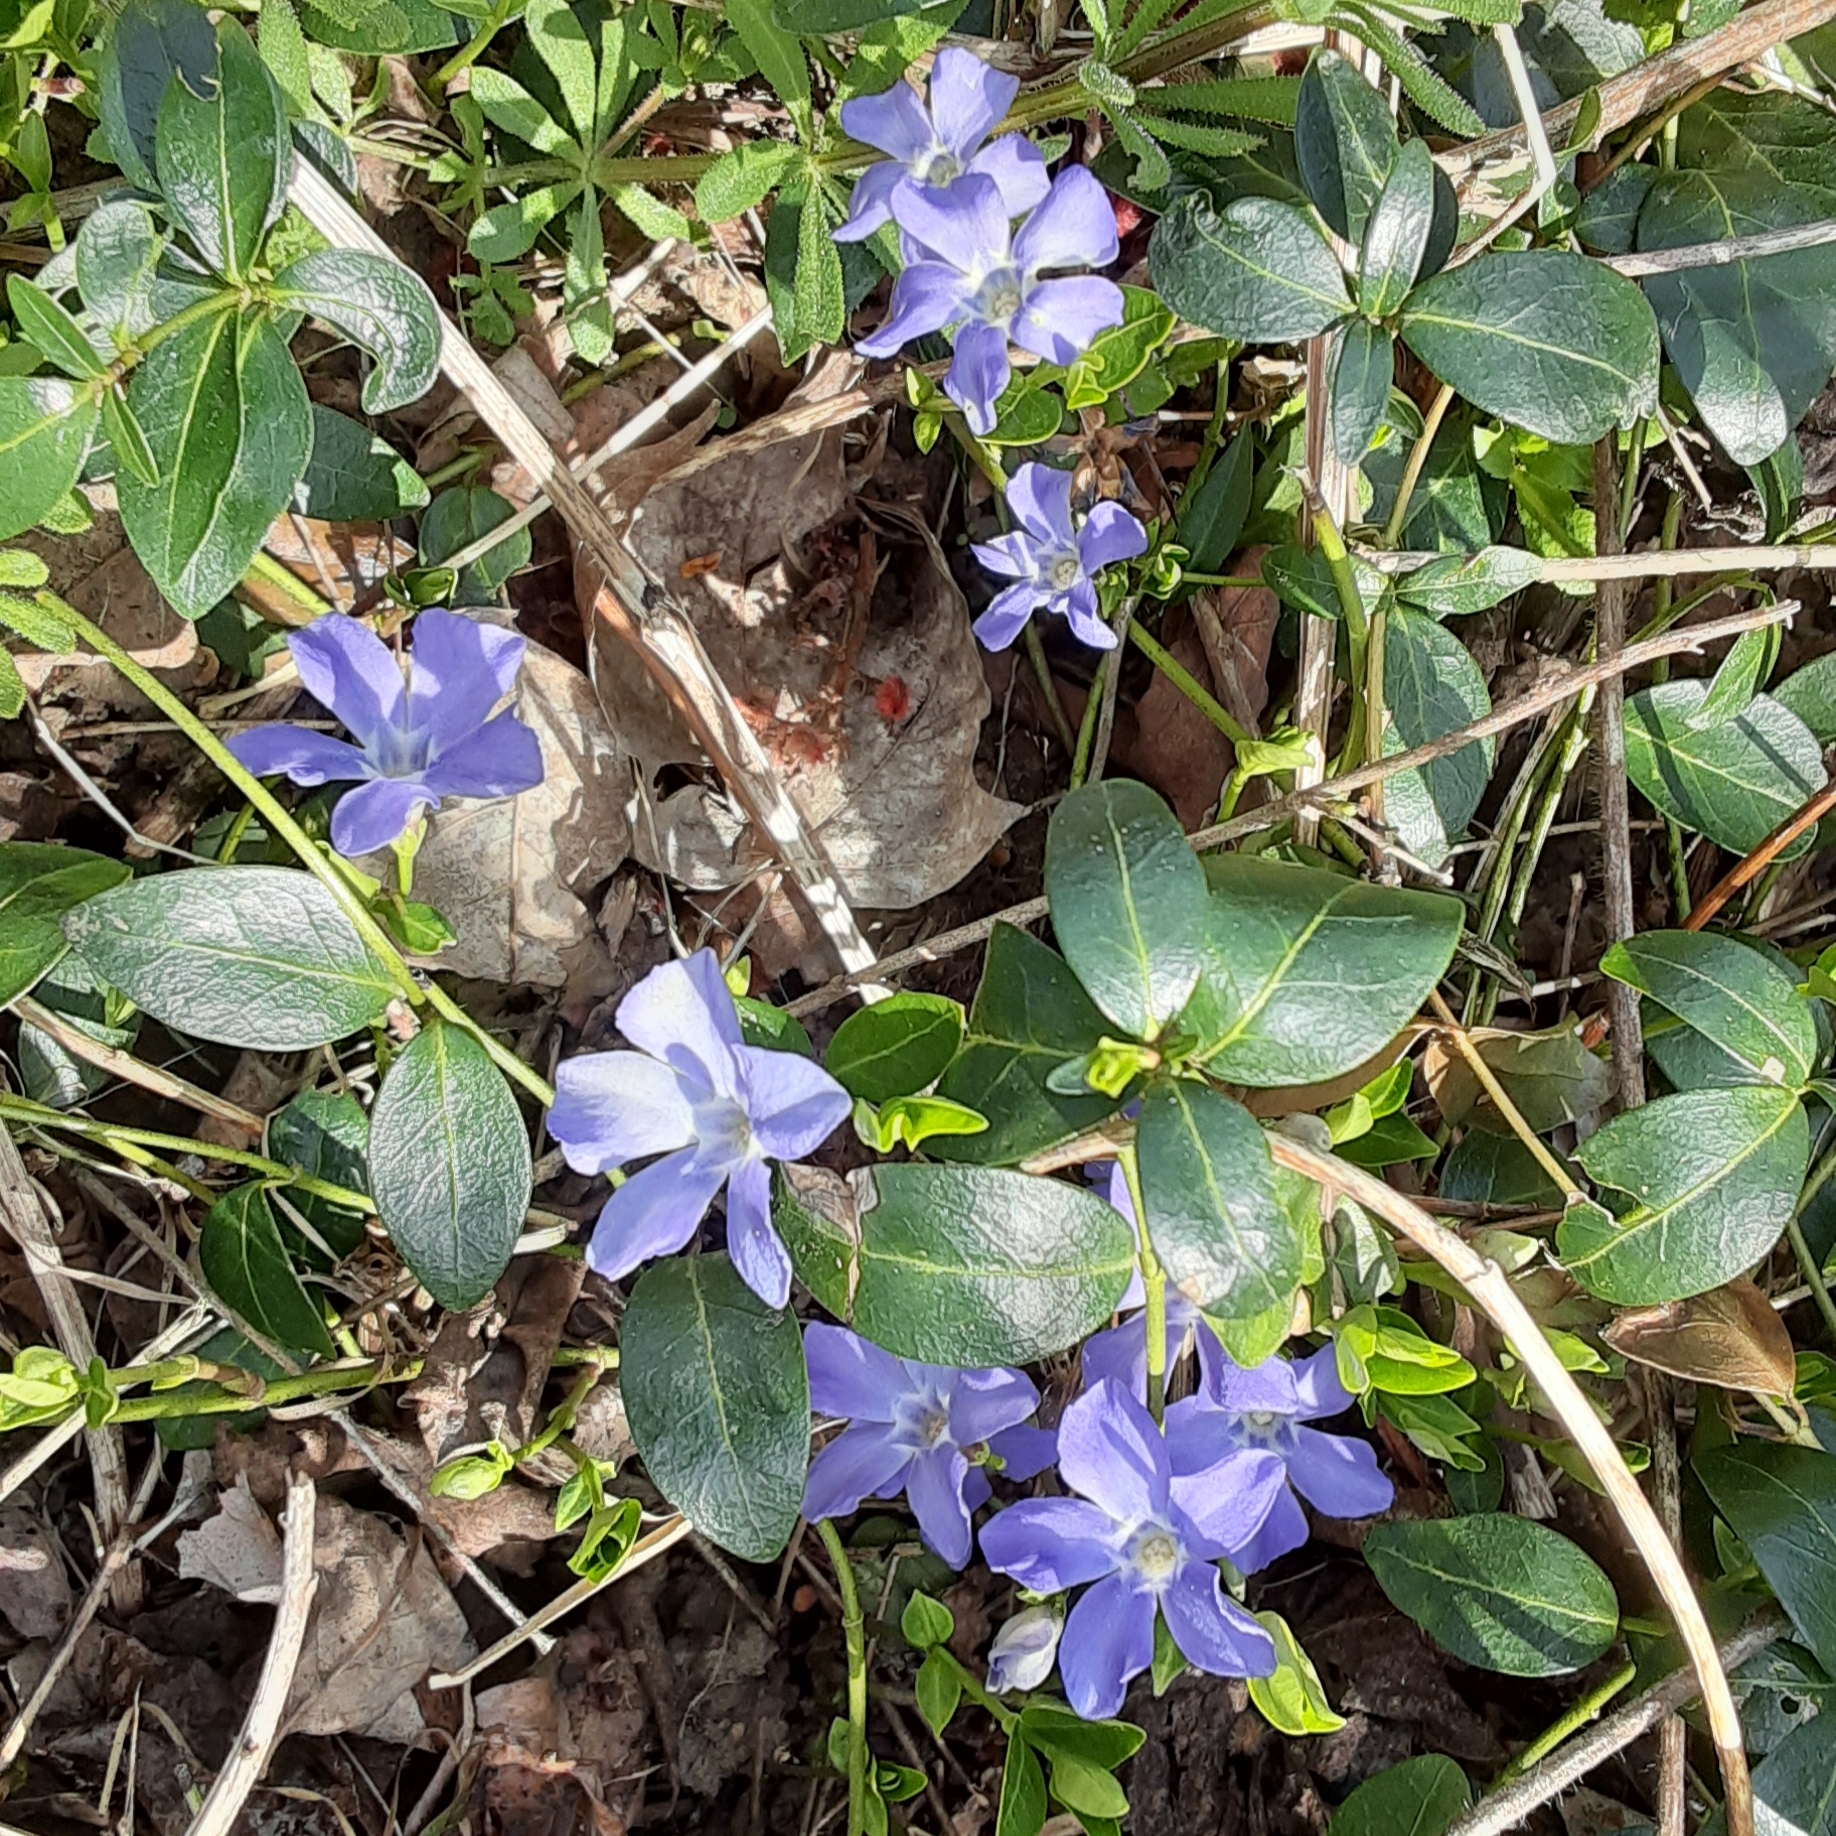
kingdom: Plantae
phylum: Tracheophyta
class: Magnoliopsida
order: Gentianales
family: Apocynaceae
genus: Vinca
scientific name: Vinca minor
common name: Lesser periwinkle
